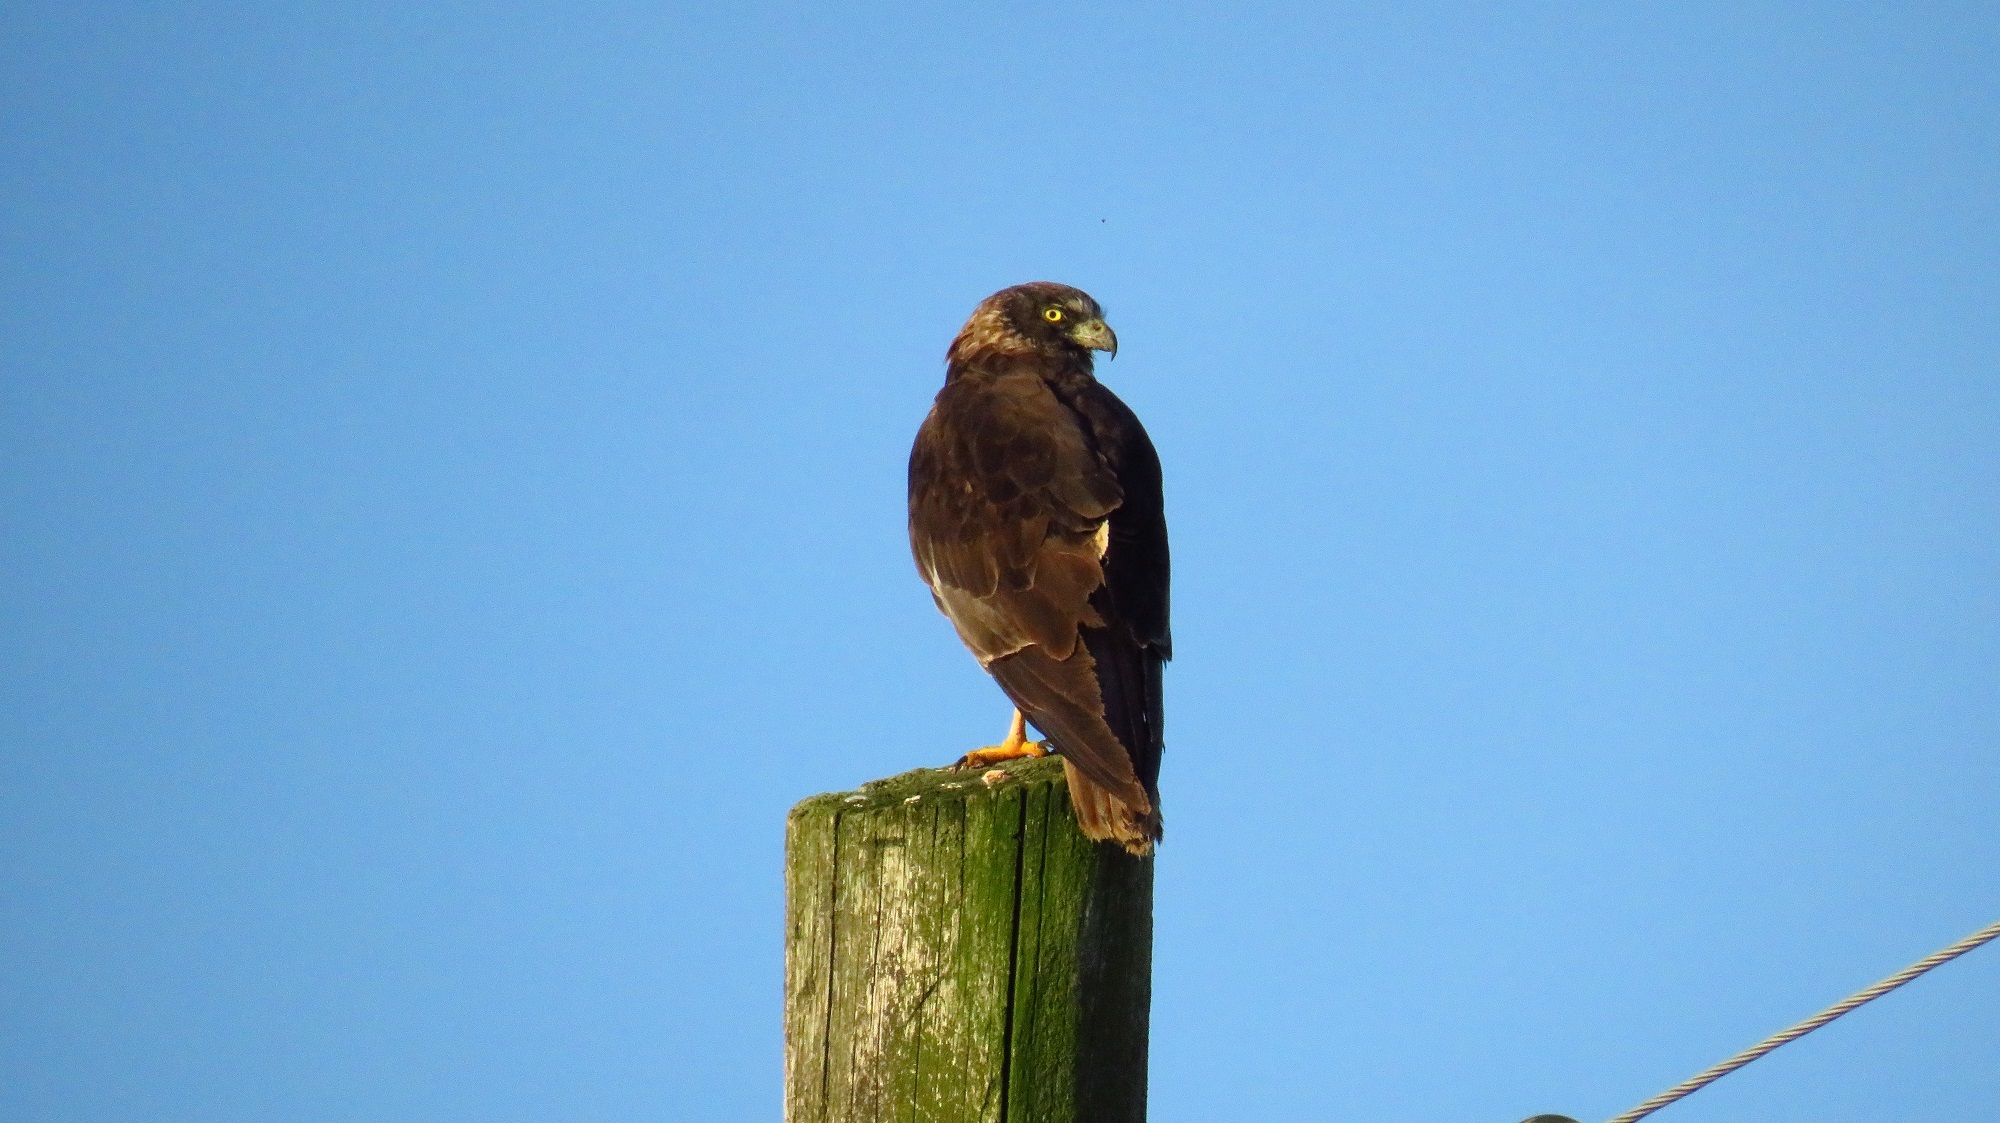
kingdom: Animalia
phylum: Chordata
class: Aves
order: Accipitriformes
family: Accipitridae
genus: Circus
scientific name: Circus aeruginosus
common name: Western marsh harrier
